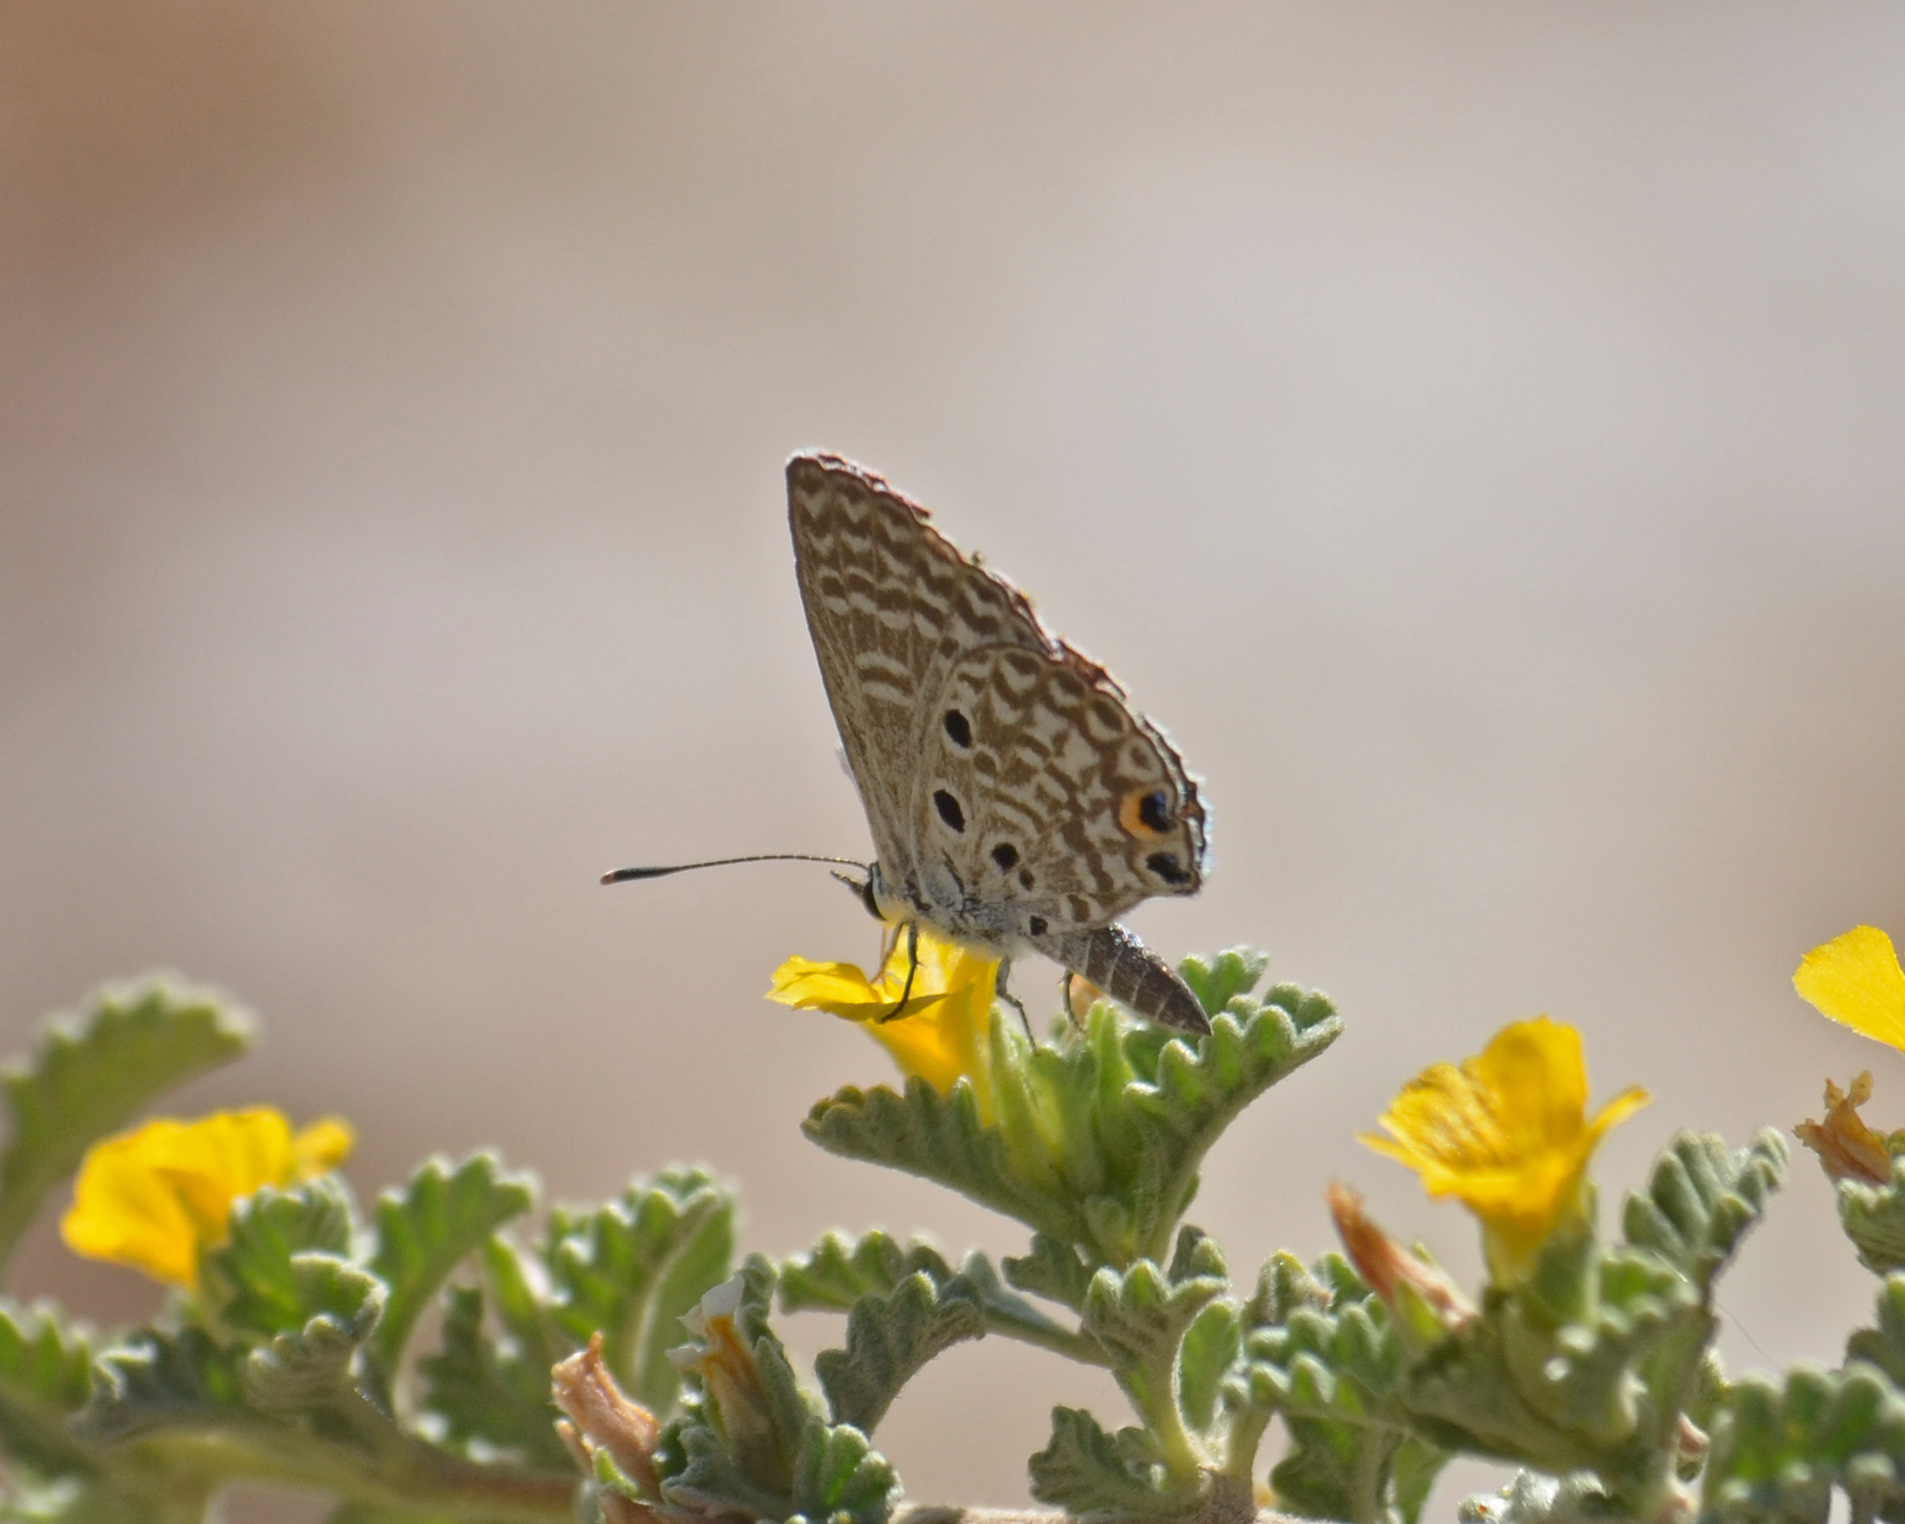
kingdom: Animalia
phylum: Arthropoda
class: Insecta
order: Lepidoptera
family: Lycaenidae
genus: Cyclargus
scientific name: Cyclargus thomasi
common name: Miami blue
